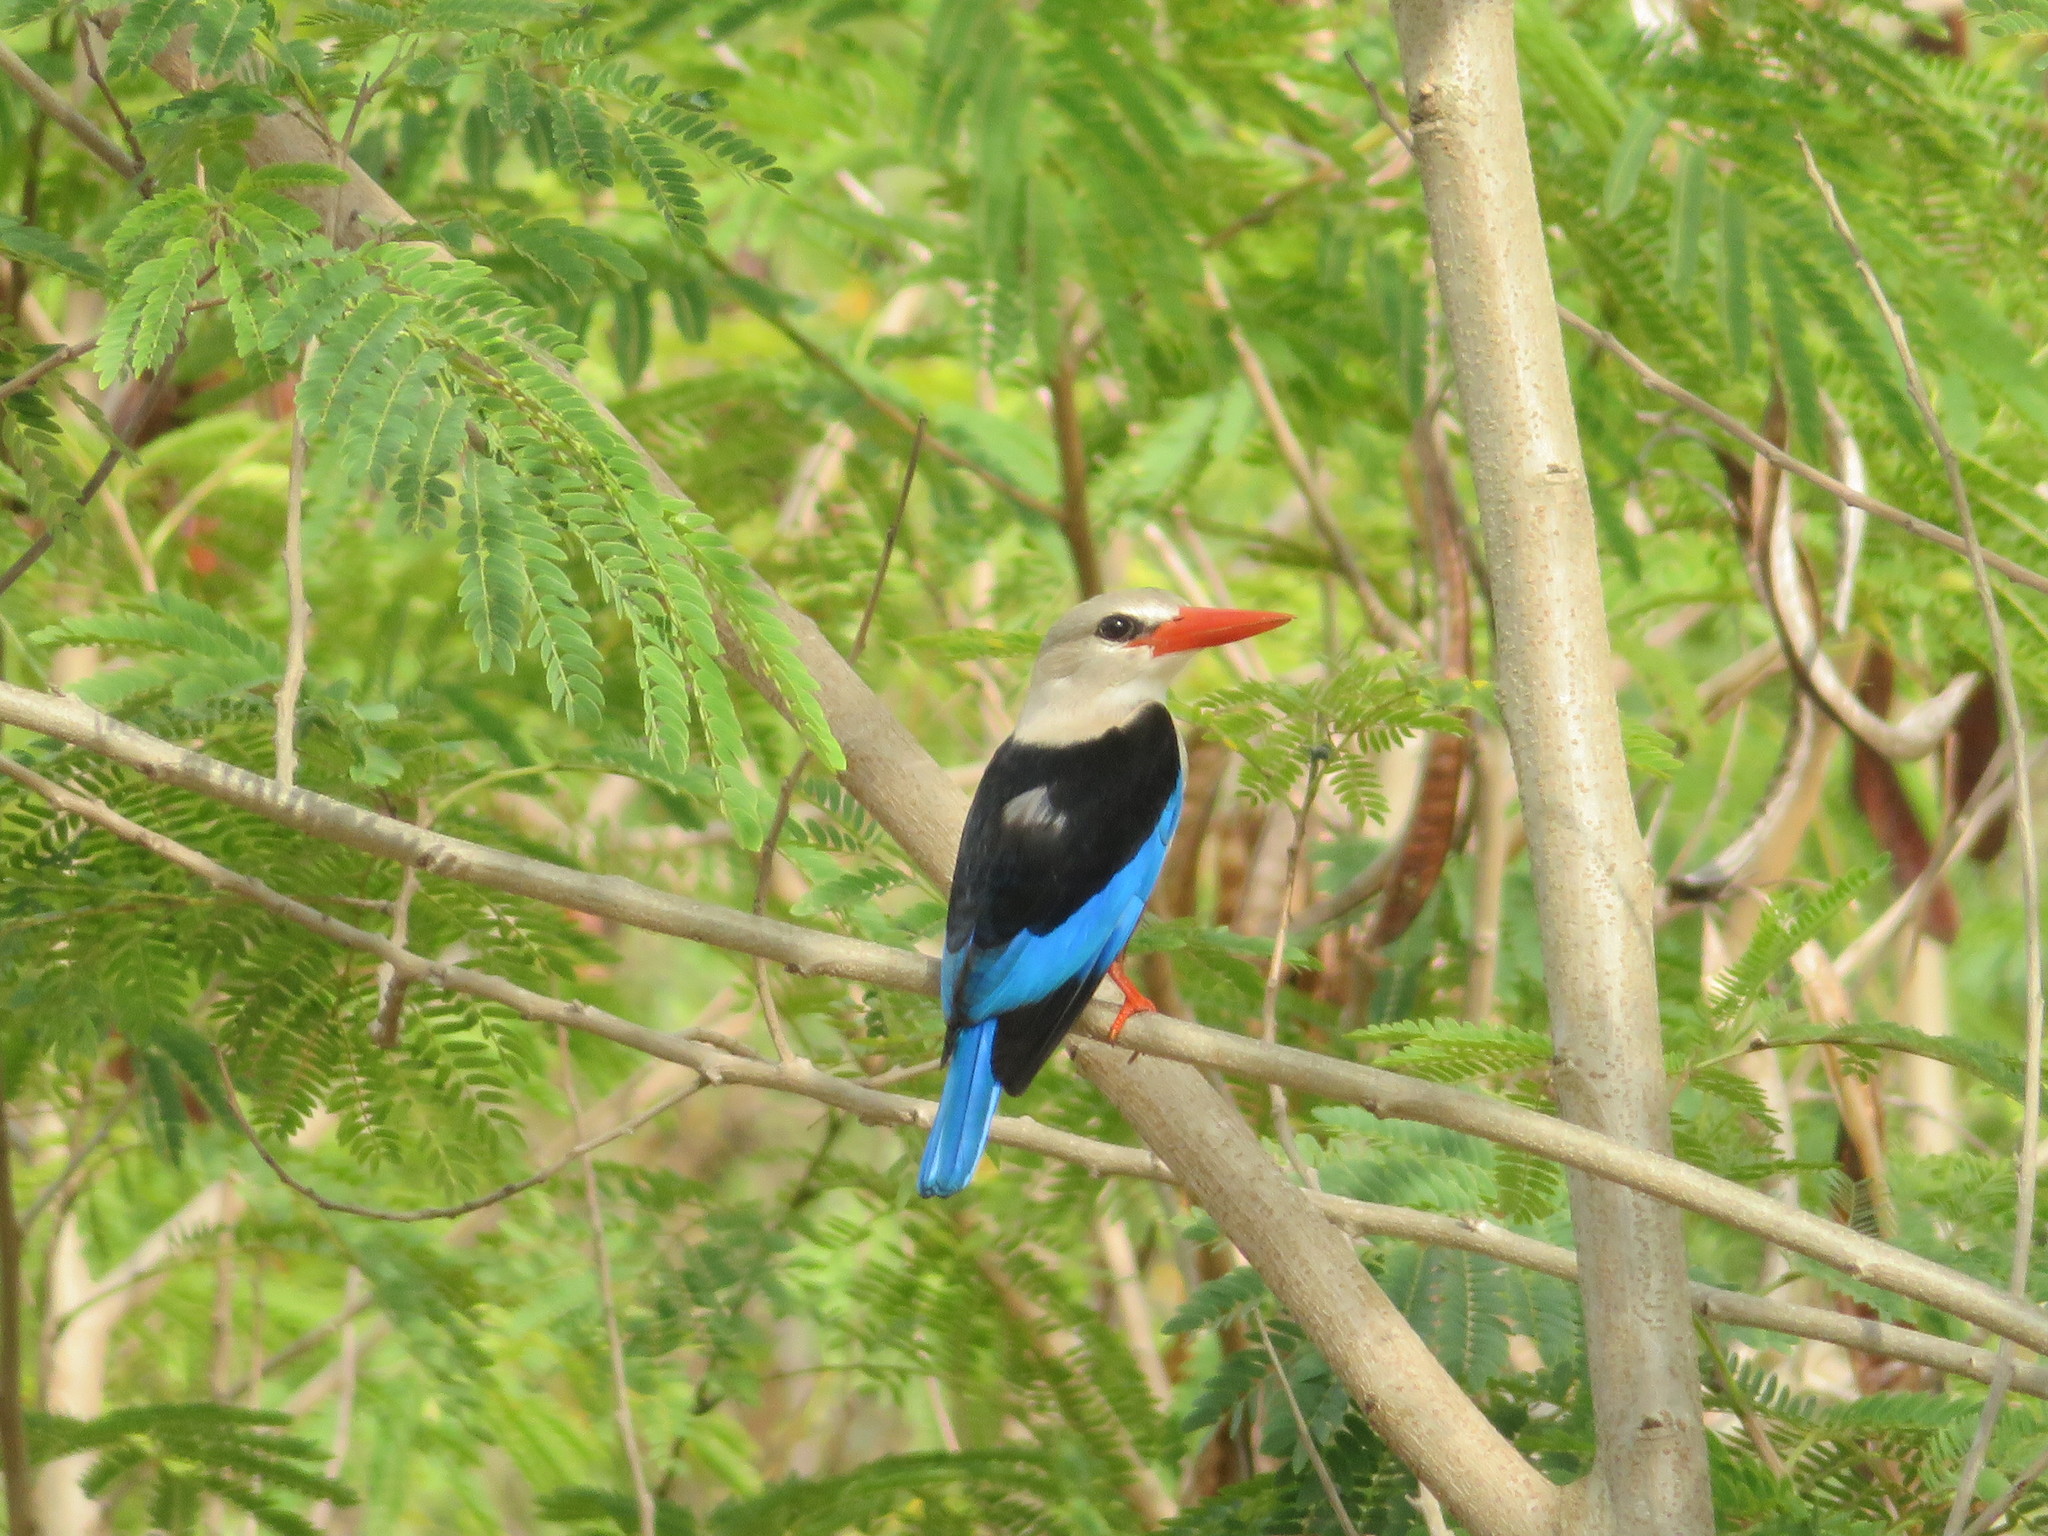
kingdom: Animalia
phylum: Chordata
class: Aves
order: Coraciiformes
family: Alcedinidae
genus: Halcyon
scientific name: Halcyon leucocephala
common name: Grey-headed kingfisher
